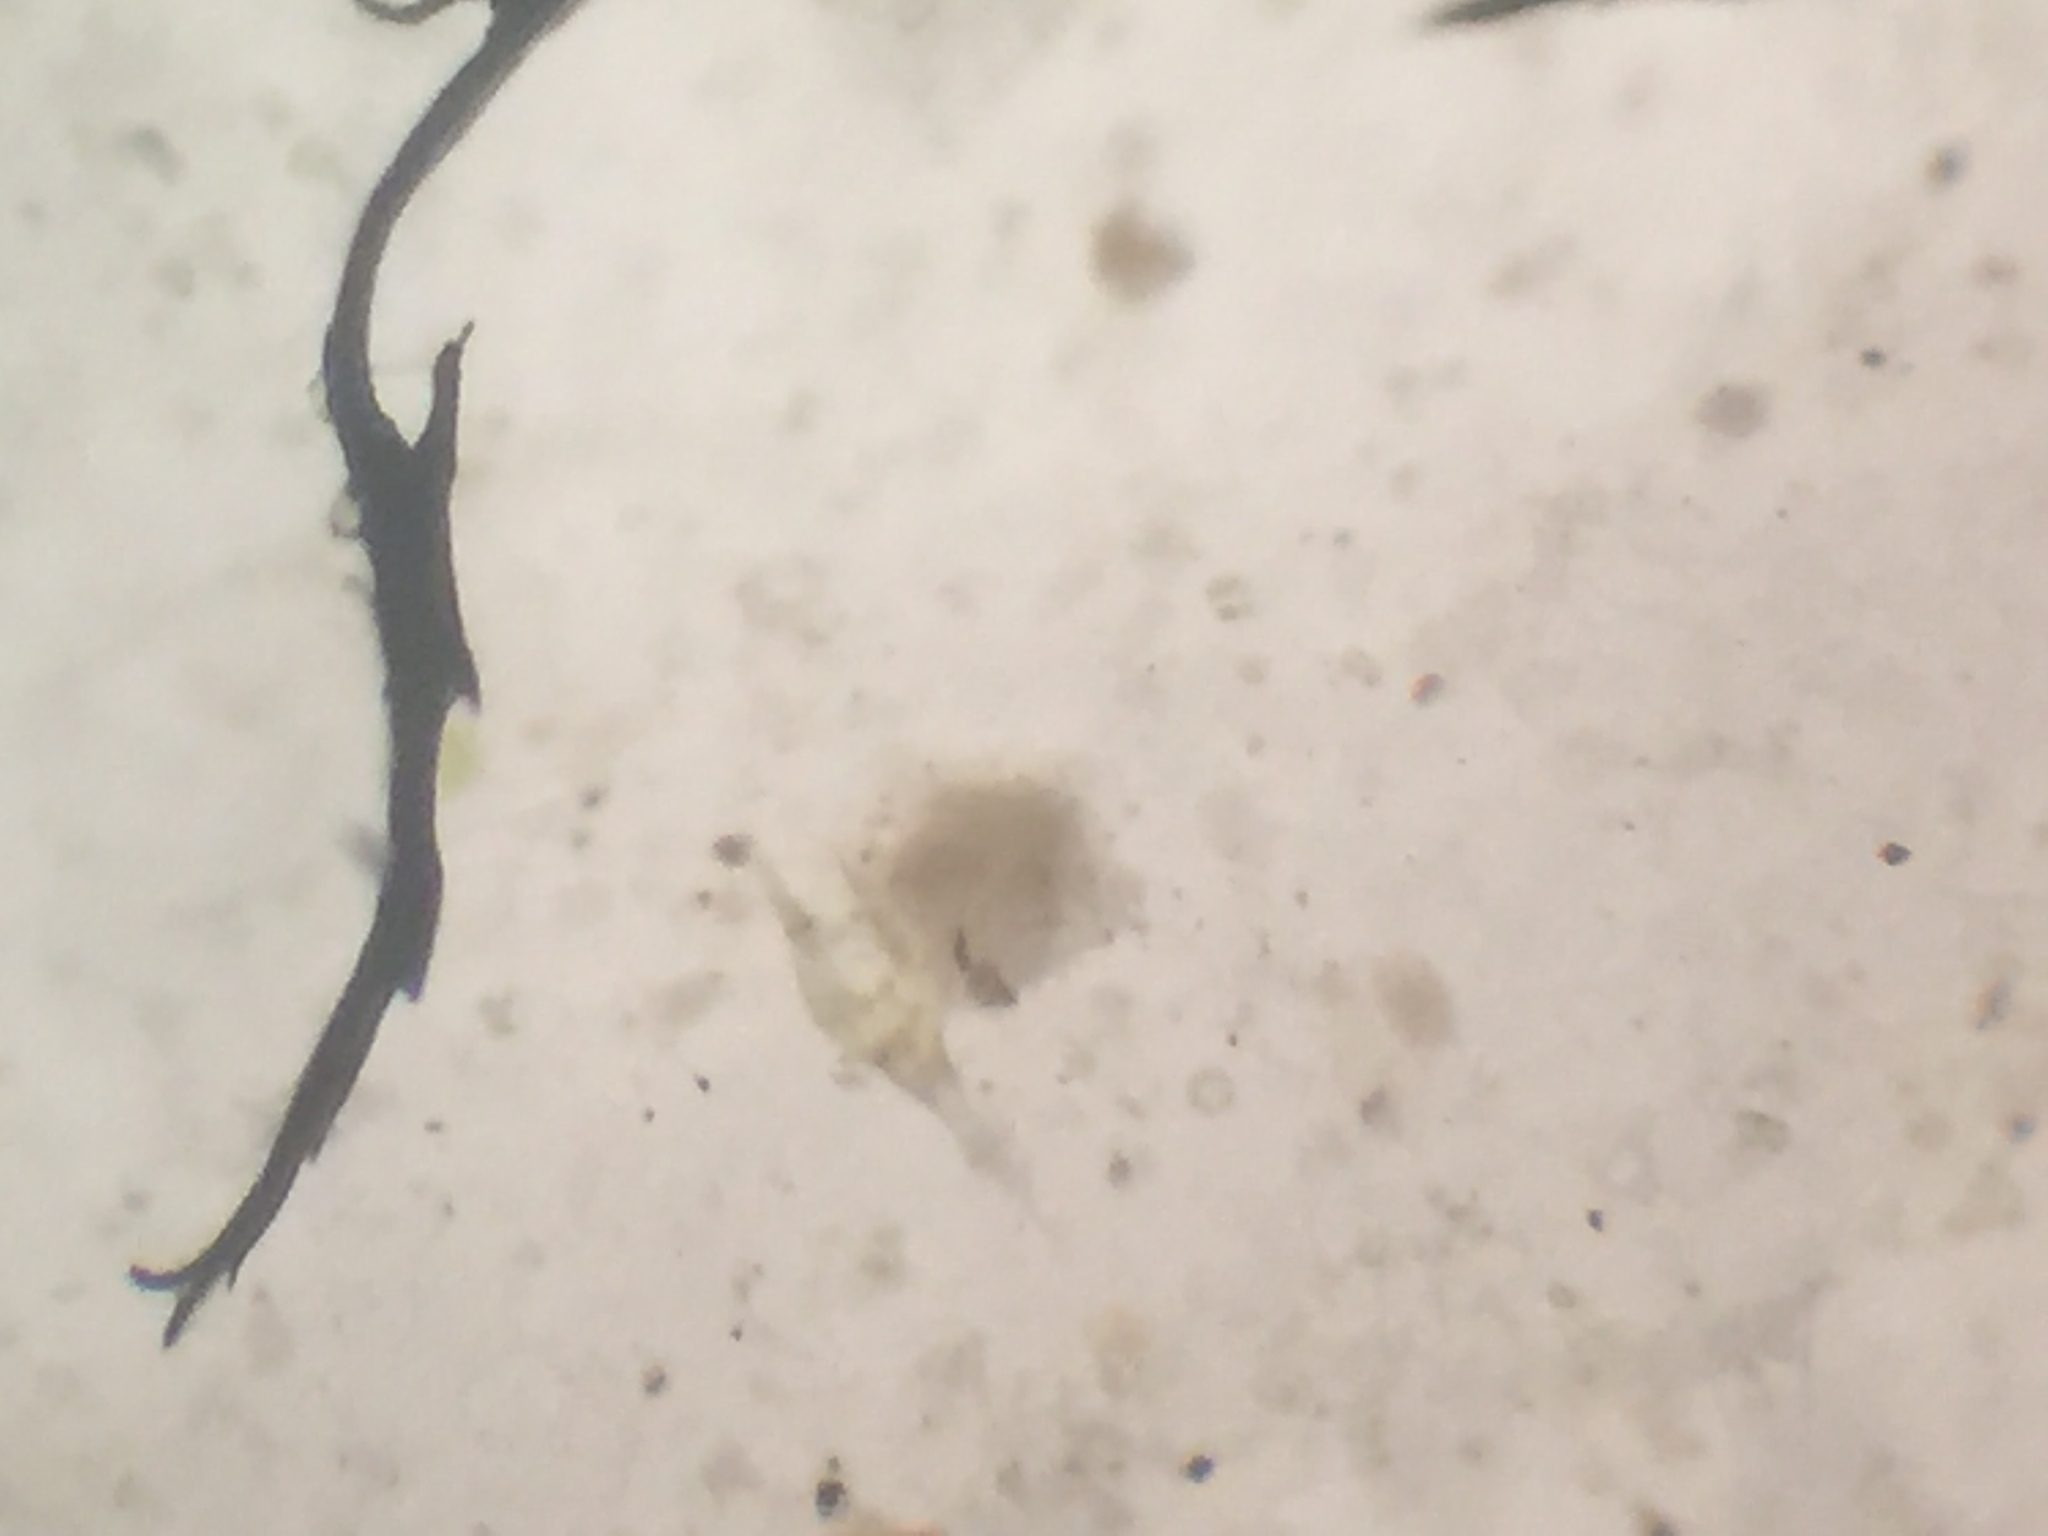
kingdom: Chromista
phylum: Myzozoa
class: Dinophyceae
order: Gonyaulacales
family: Ceratiaceae
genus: Tripos
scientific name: Tripos furca
